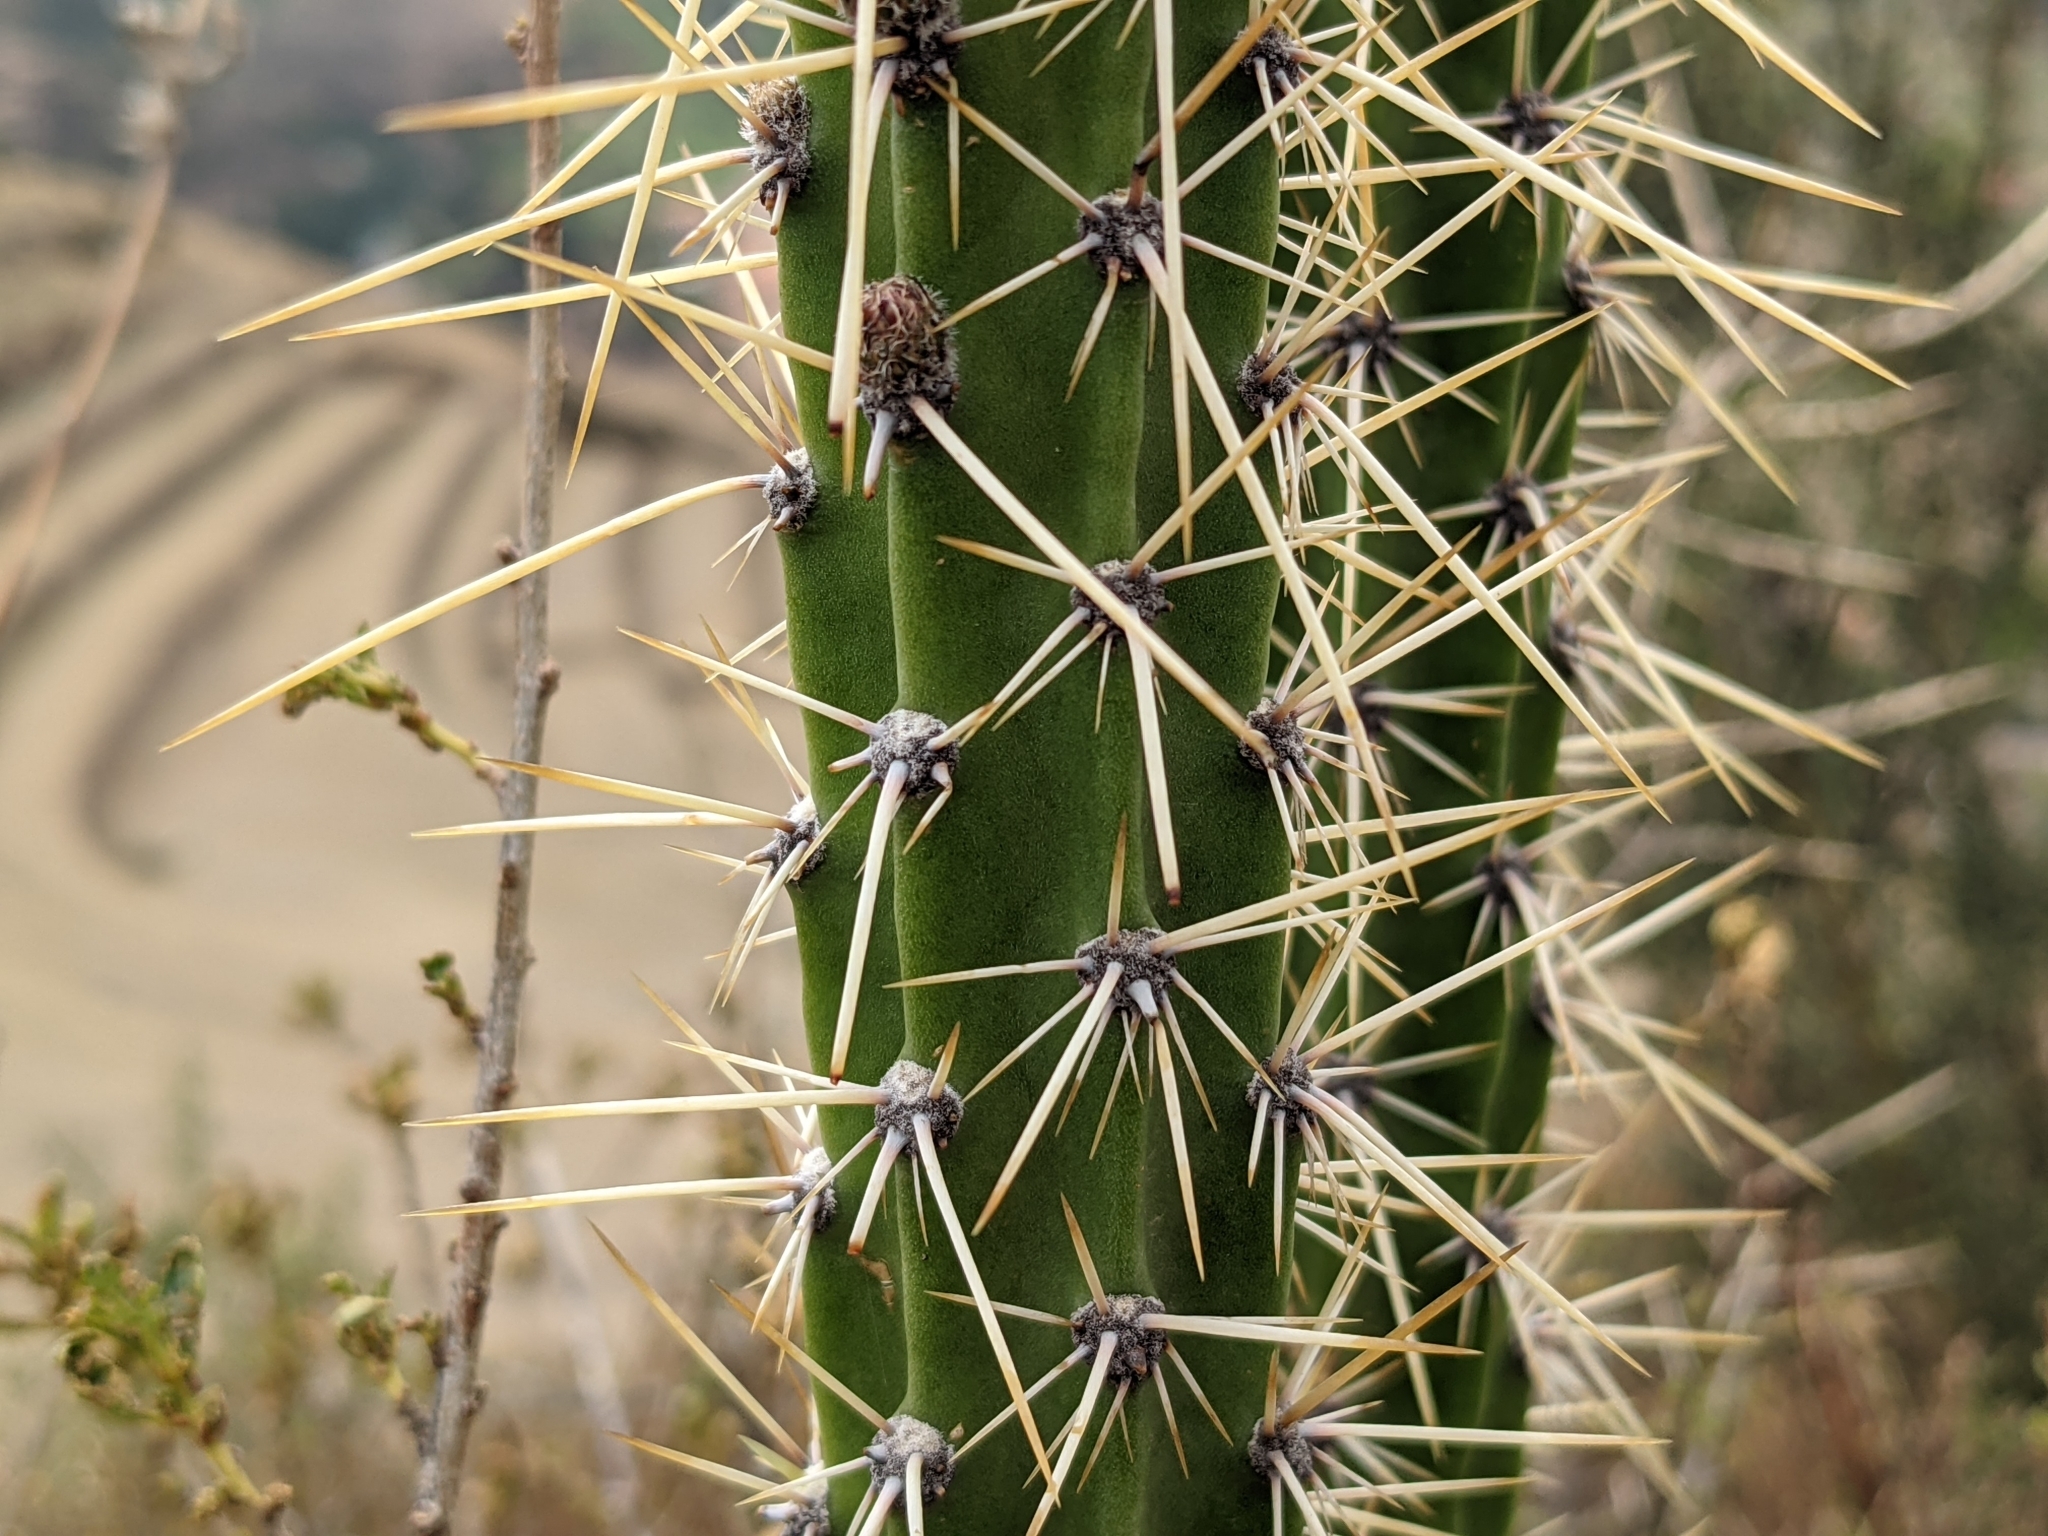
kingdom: Plantae
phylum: Tracheophyta
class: Magnoliopsida
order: Caryophyllales
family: Cactaceae
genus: Corryocactus
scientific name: Corryocactus erectus
